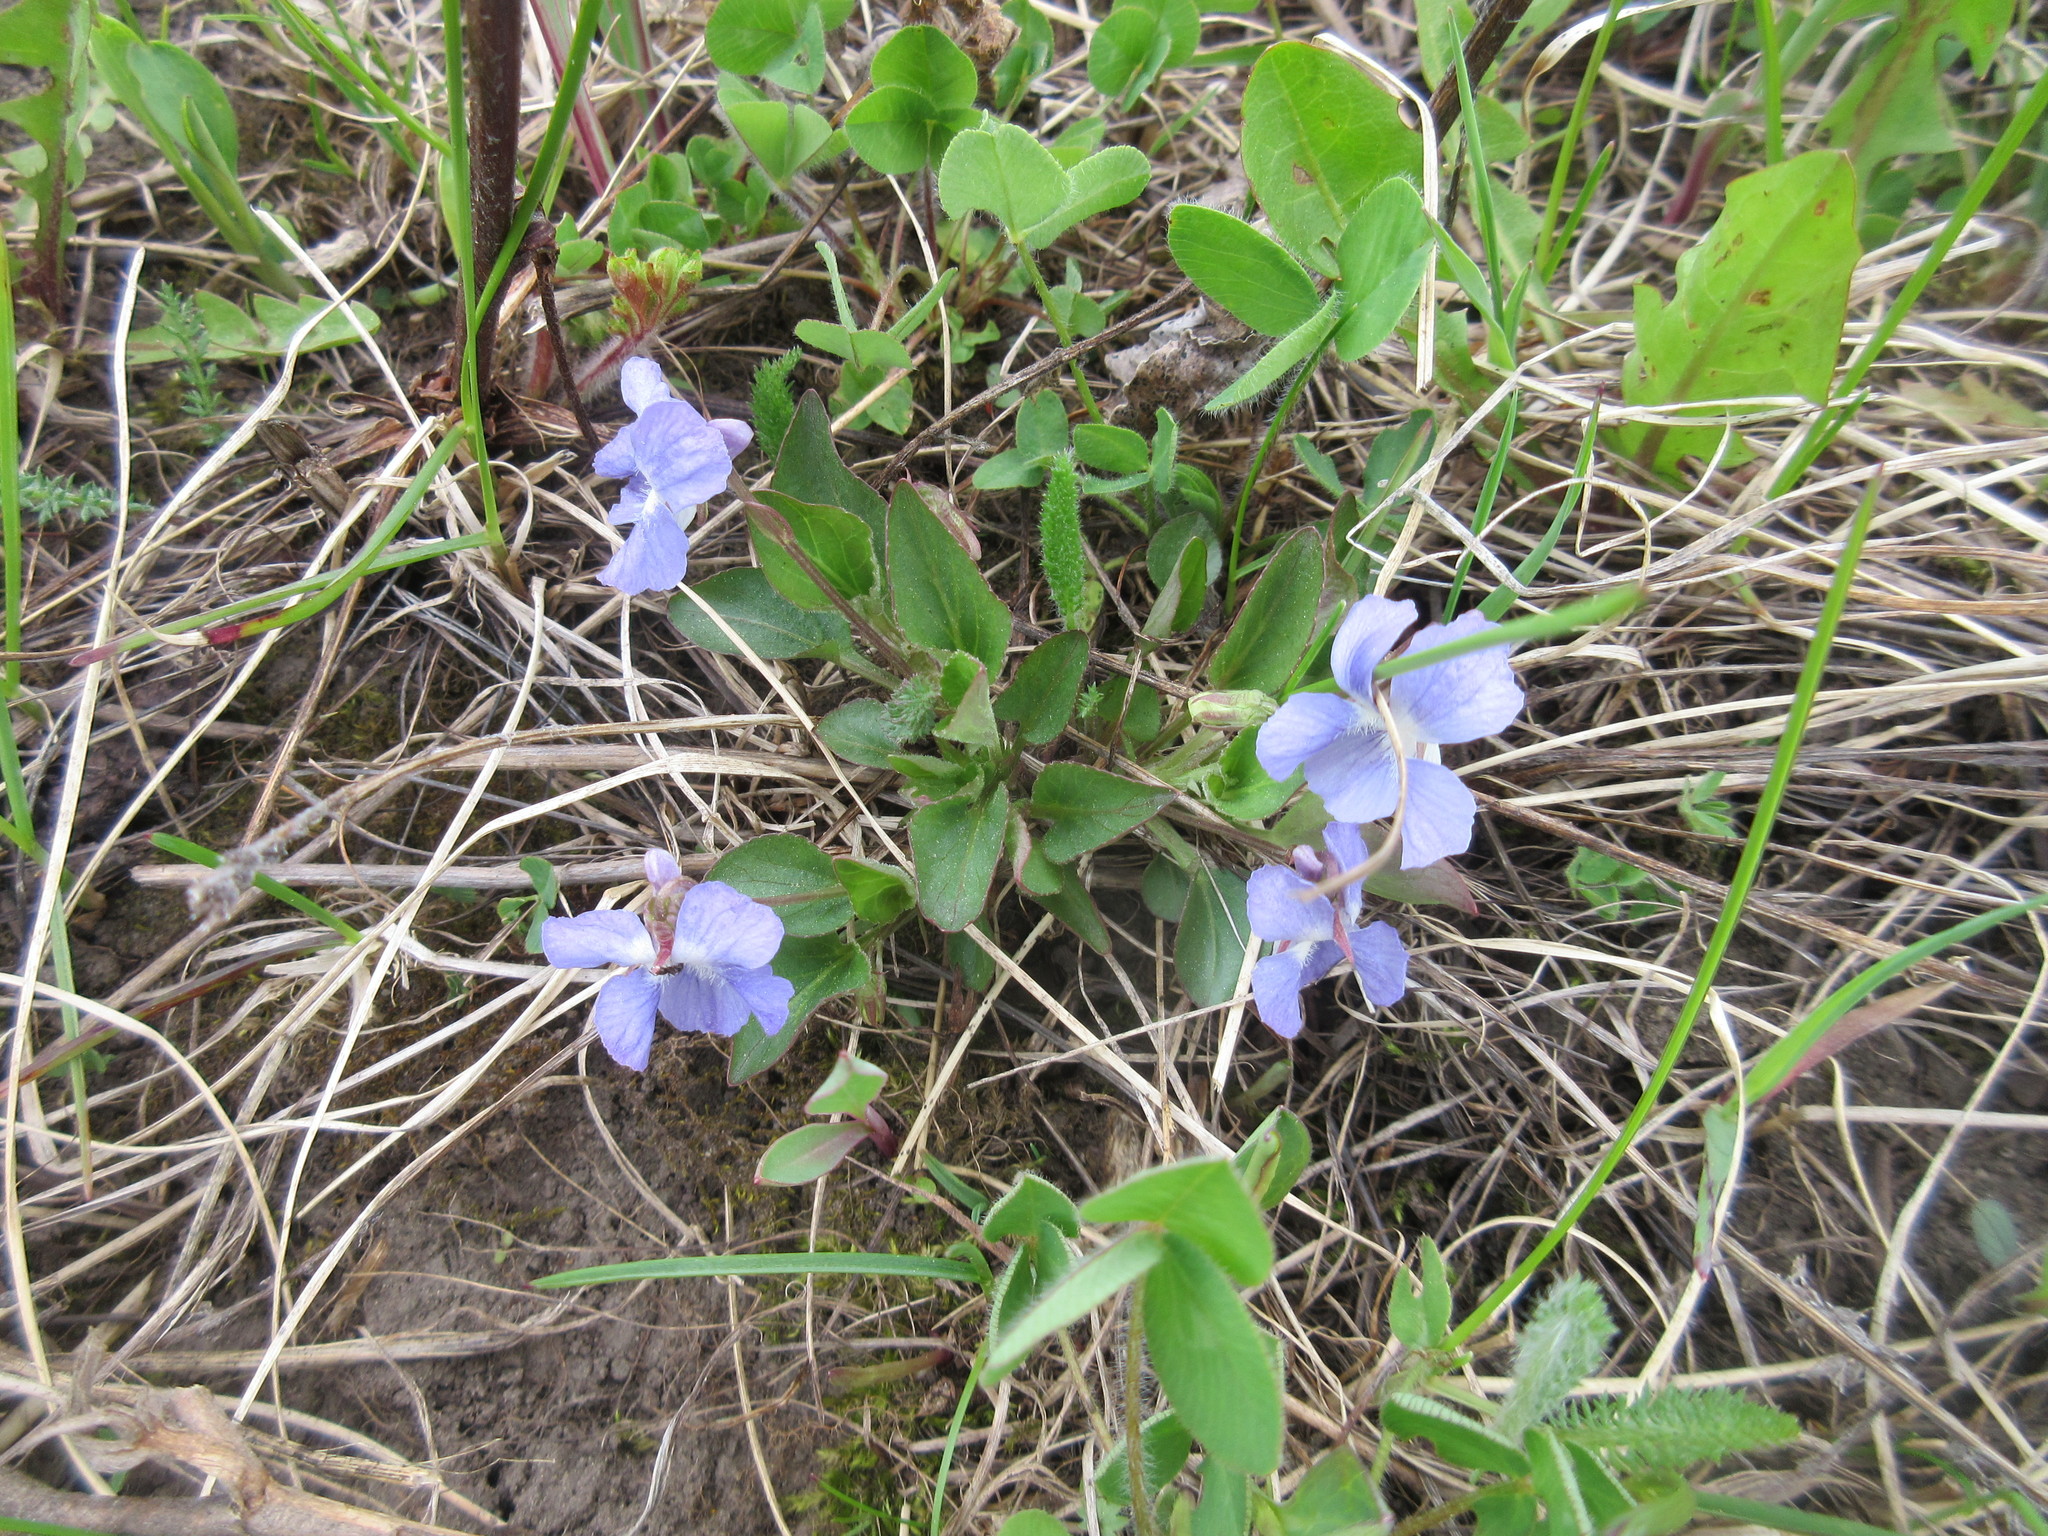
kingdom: Plantae
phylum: Tracheophyta
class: Magnoliopsida
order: Malpighiales
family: Violaceae
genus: Viola
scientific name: Viola adunca
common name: Sand violet
